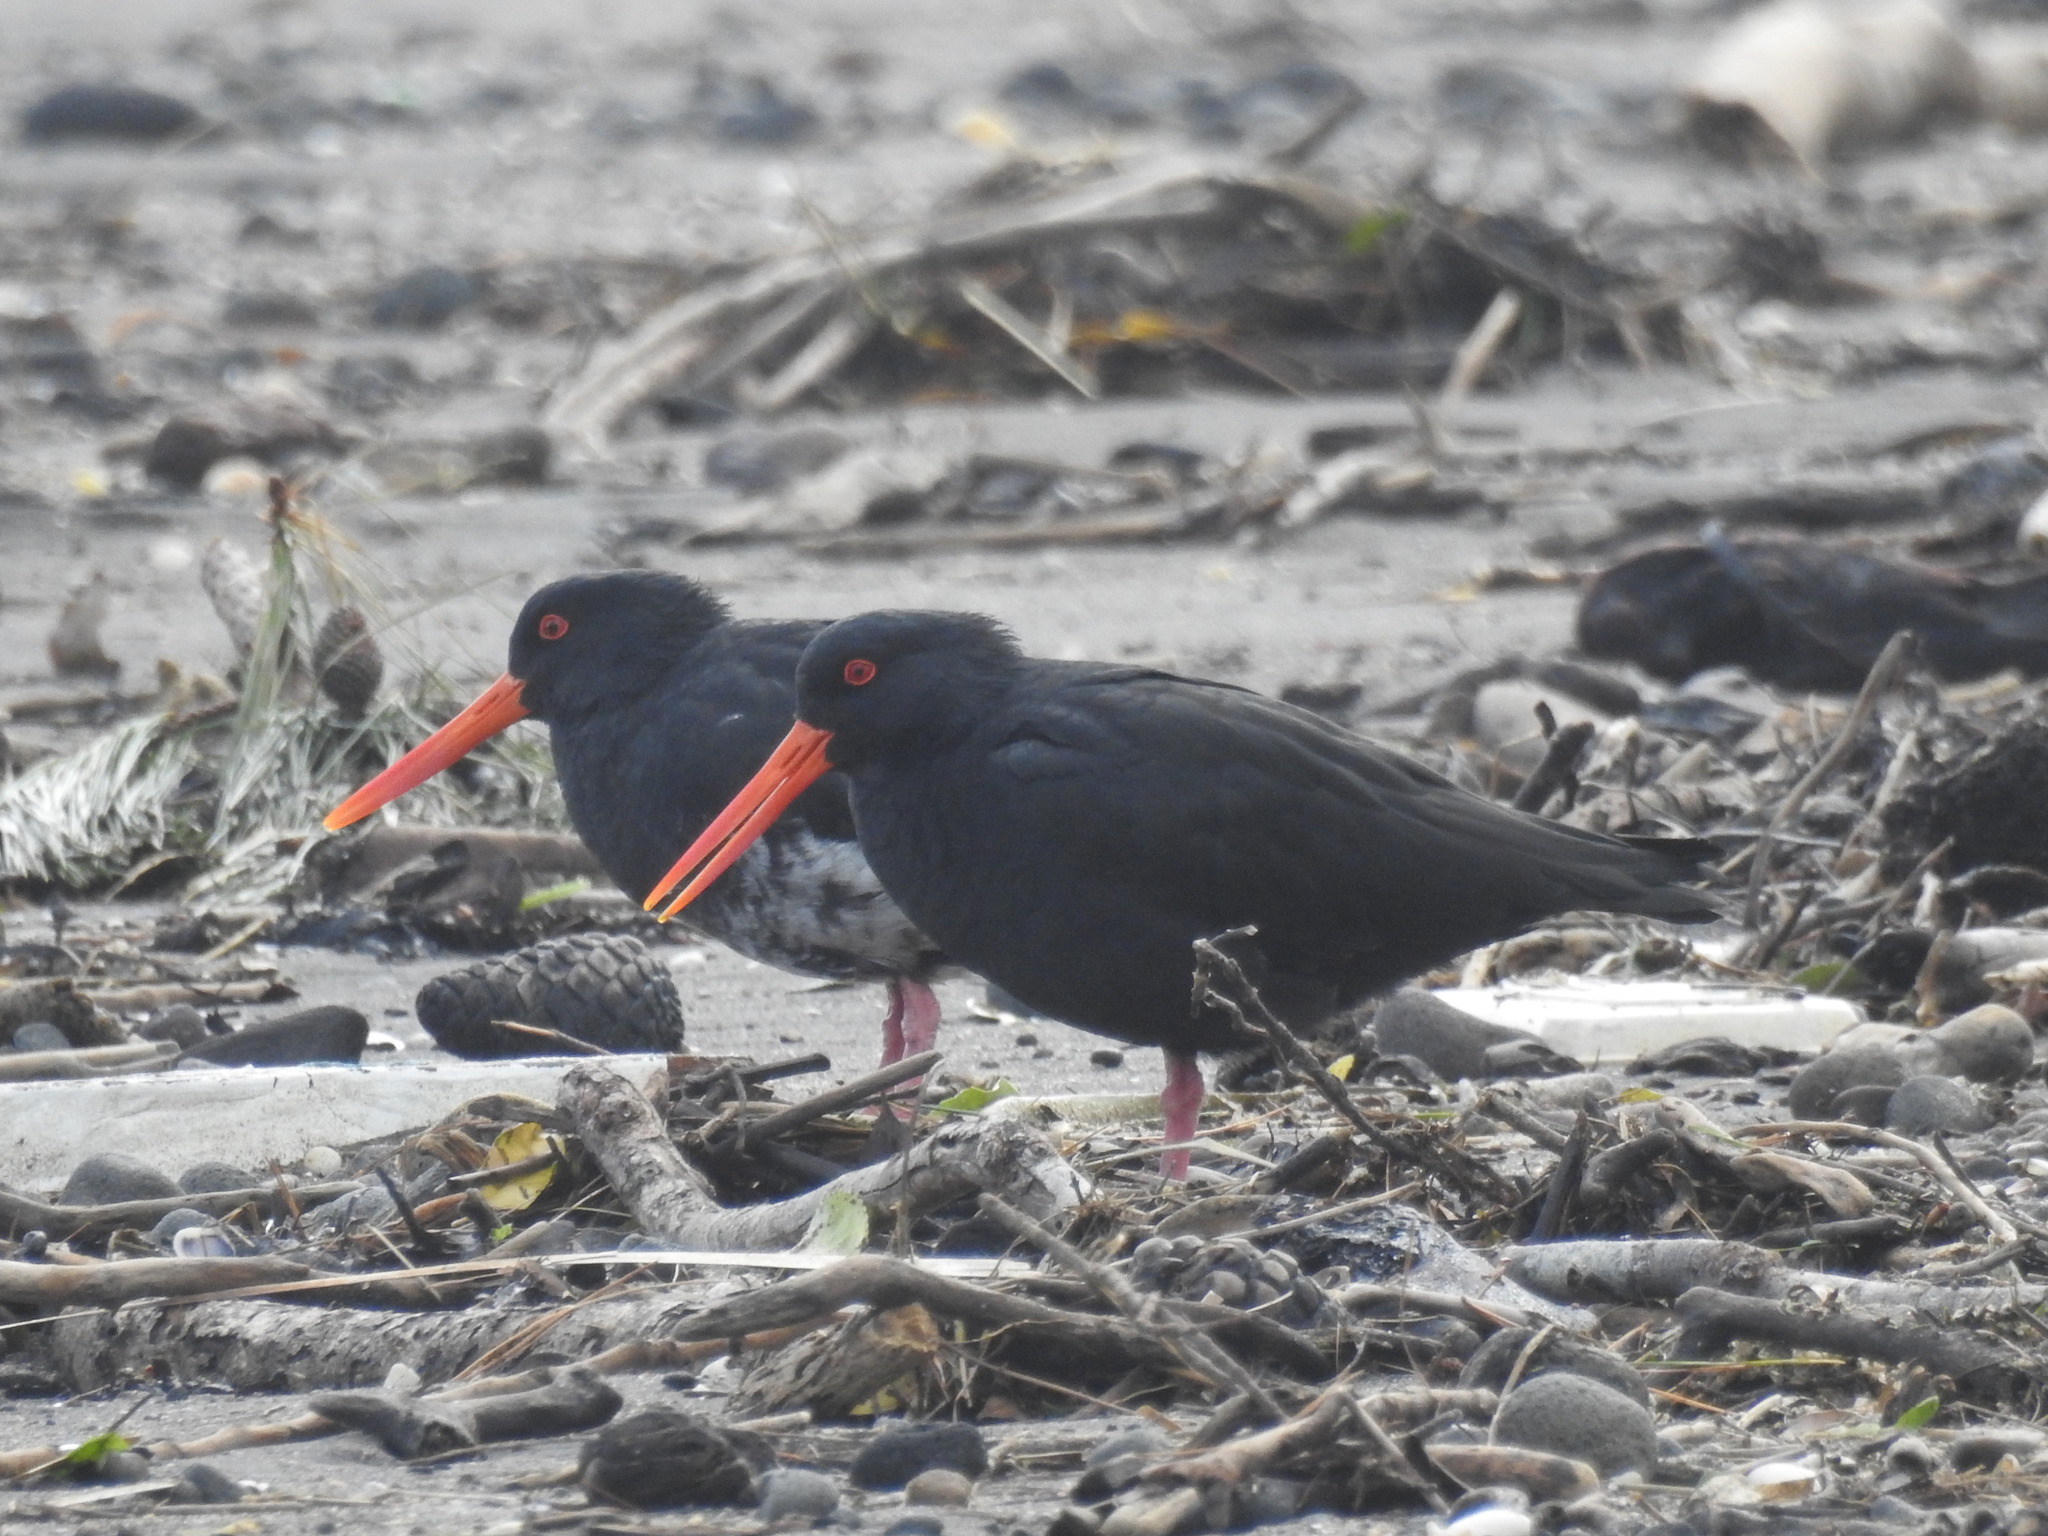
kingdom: Animalia
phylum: Chordata
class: Aves
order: Charadriiformes
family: Haematopodidae
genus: Haematopus
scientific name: Haematopus unicolor
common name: Variable oystercatcher
